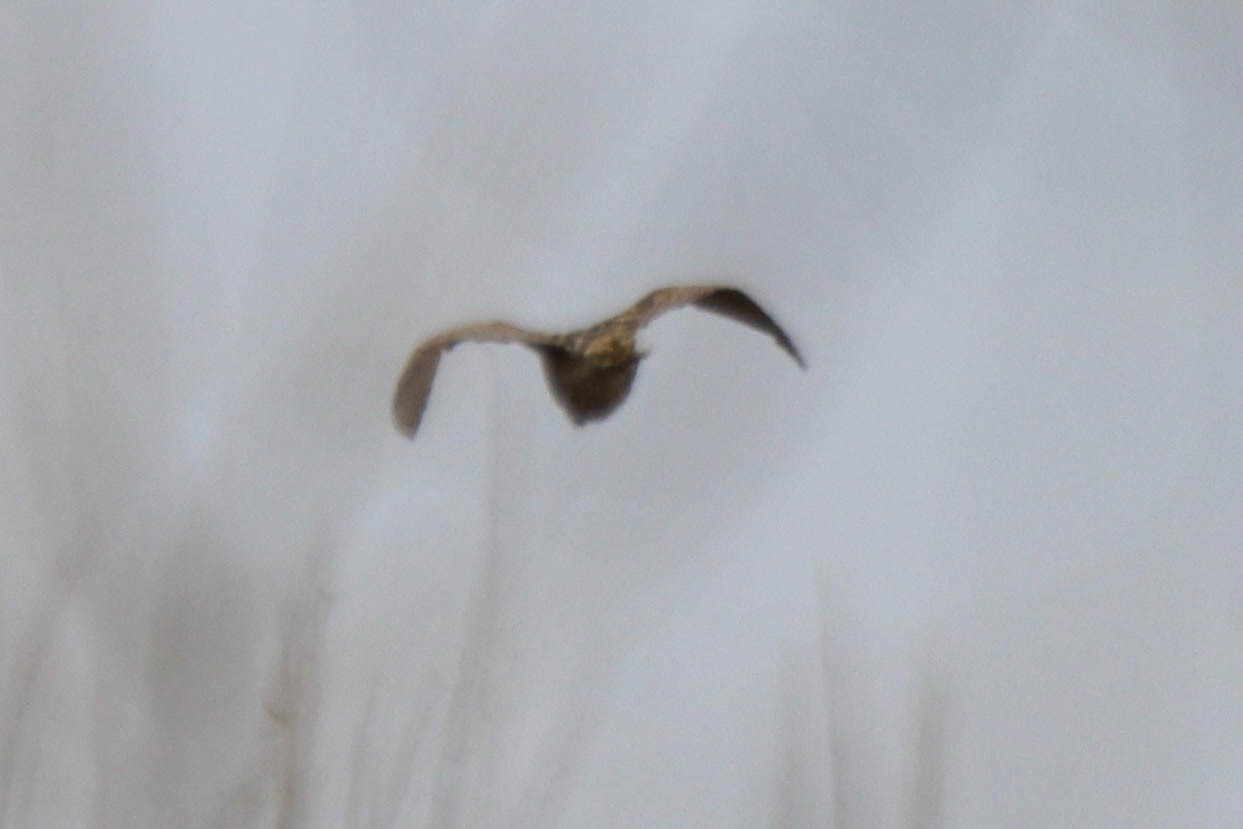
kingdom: Animalia
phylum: Chordata
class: Aves
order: Pelecaniformes
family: Ardeidae
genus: Botaurus
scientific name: Botaurus stellaris
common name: Eurasian bittern
